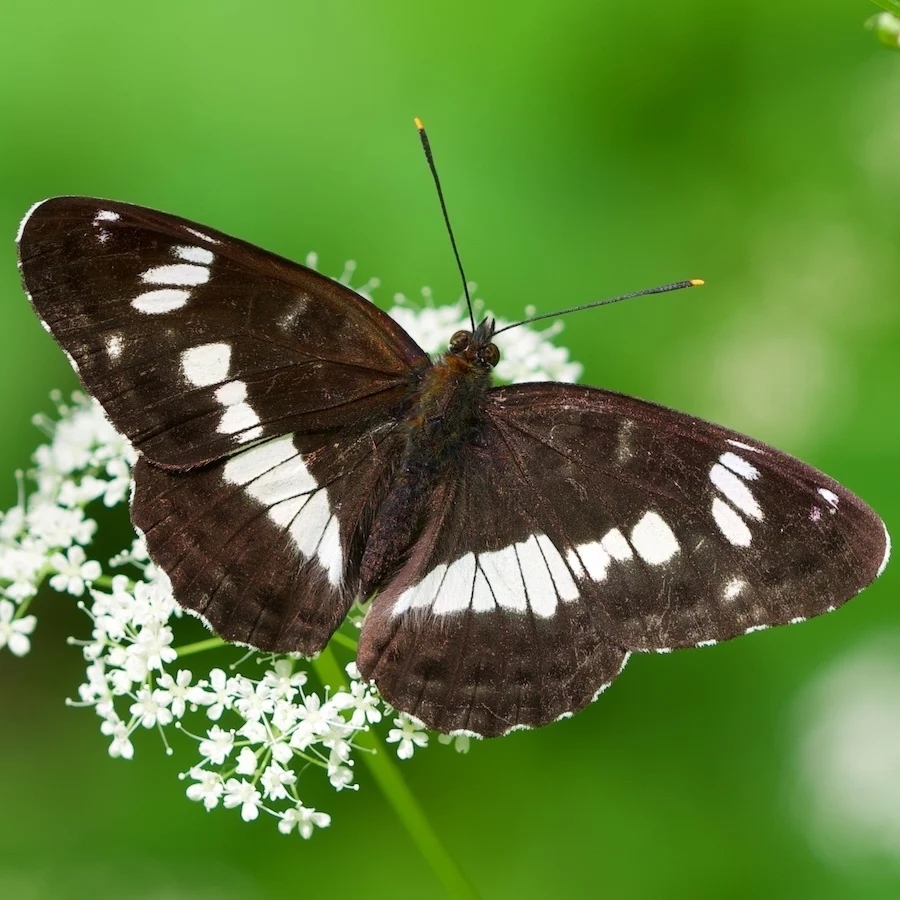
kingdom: Animalia
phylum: Arthropoda
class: Insecta
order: Lepidoptera
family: Nymphalidae
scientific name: Nymphalidae
